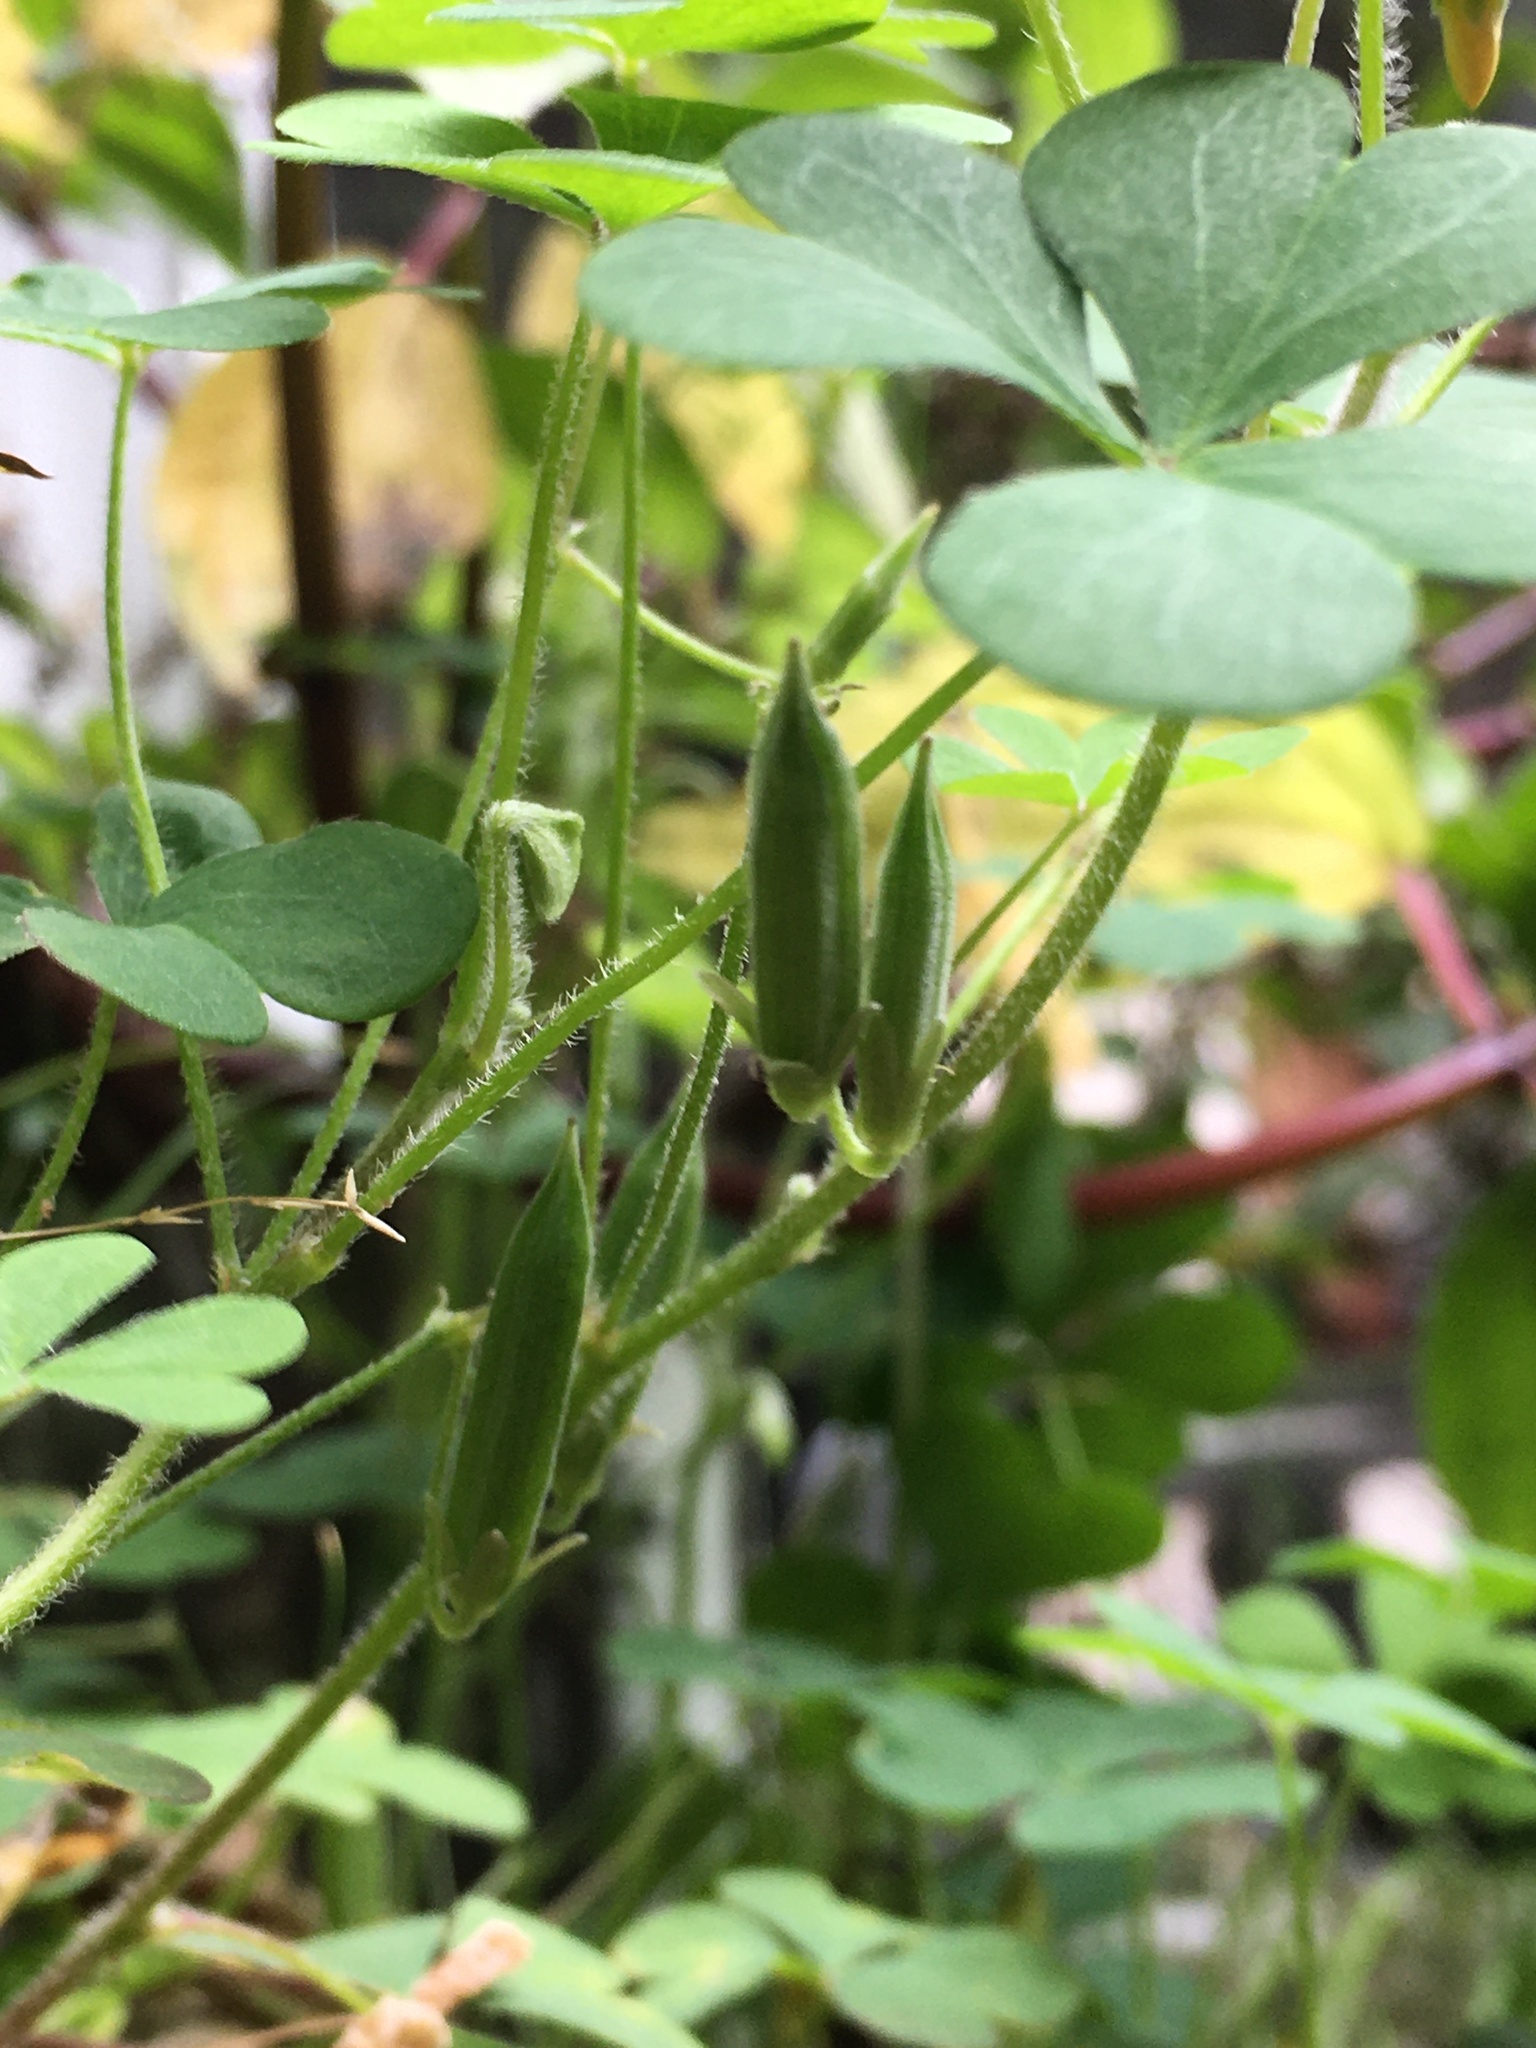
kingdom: Plantae
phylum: Tracheophyta
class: Magnoliopsida
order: Oxalidales
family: Oxalidaceae
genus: Oxalis
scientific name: Oxalis corniculata
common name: Procumbent yellow-sorrel
